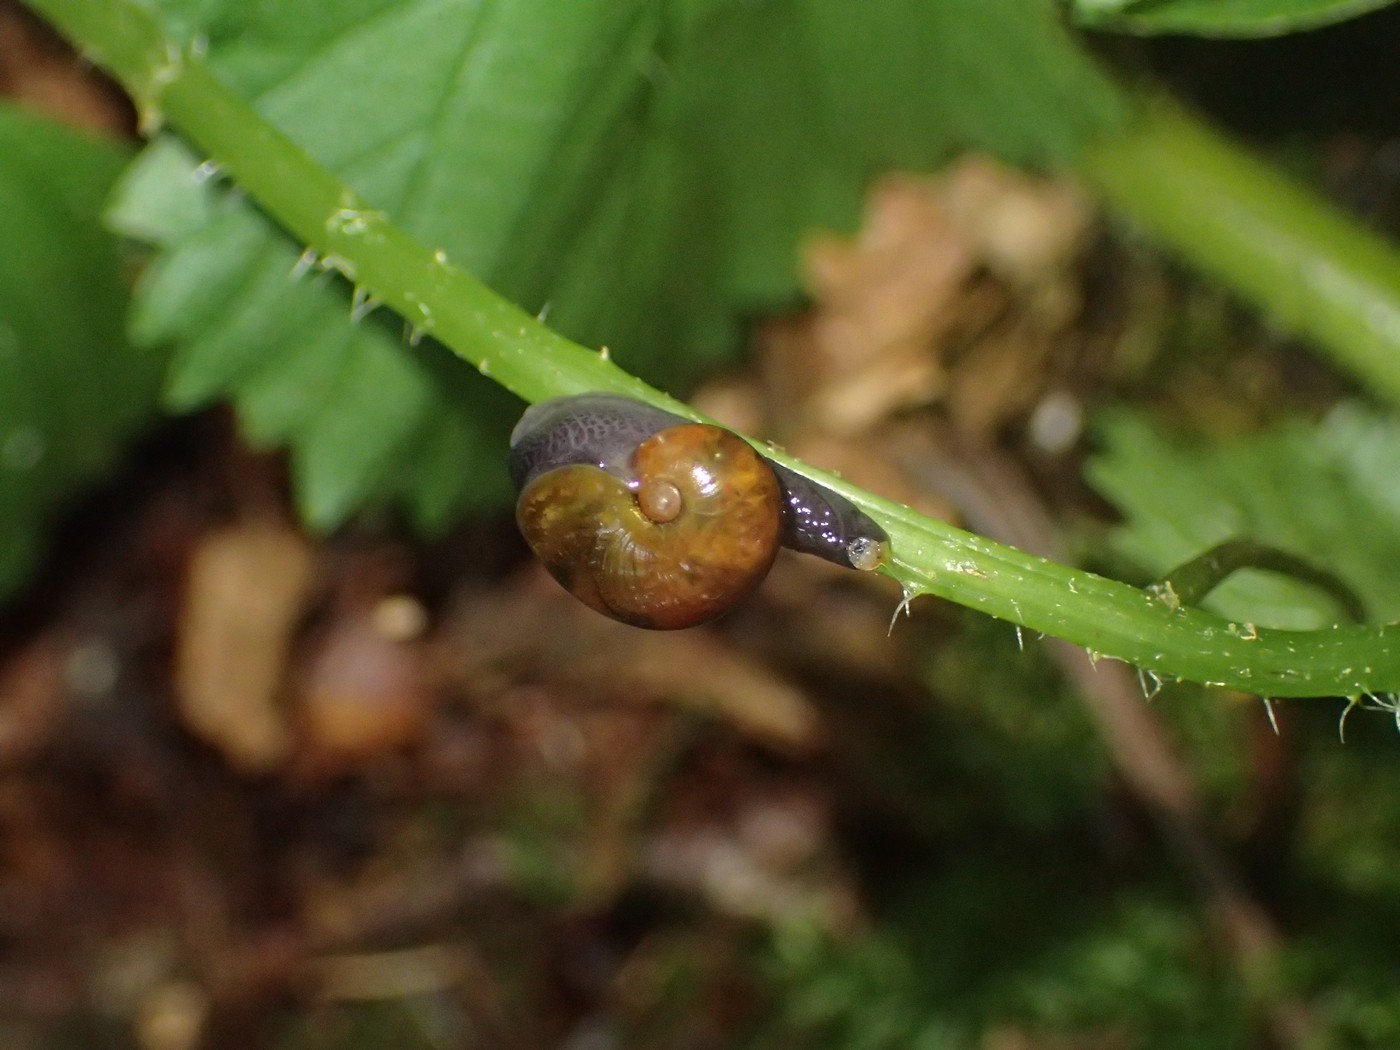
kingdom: Animalia
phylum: Mollusca
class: Gastropoda
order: Stylommatophora
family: Gastrodontidae
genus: Vitrinizonites
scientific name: Vitrinizonites latissimus
